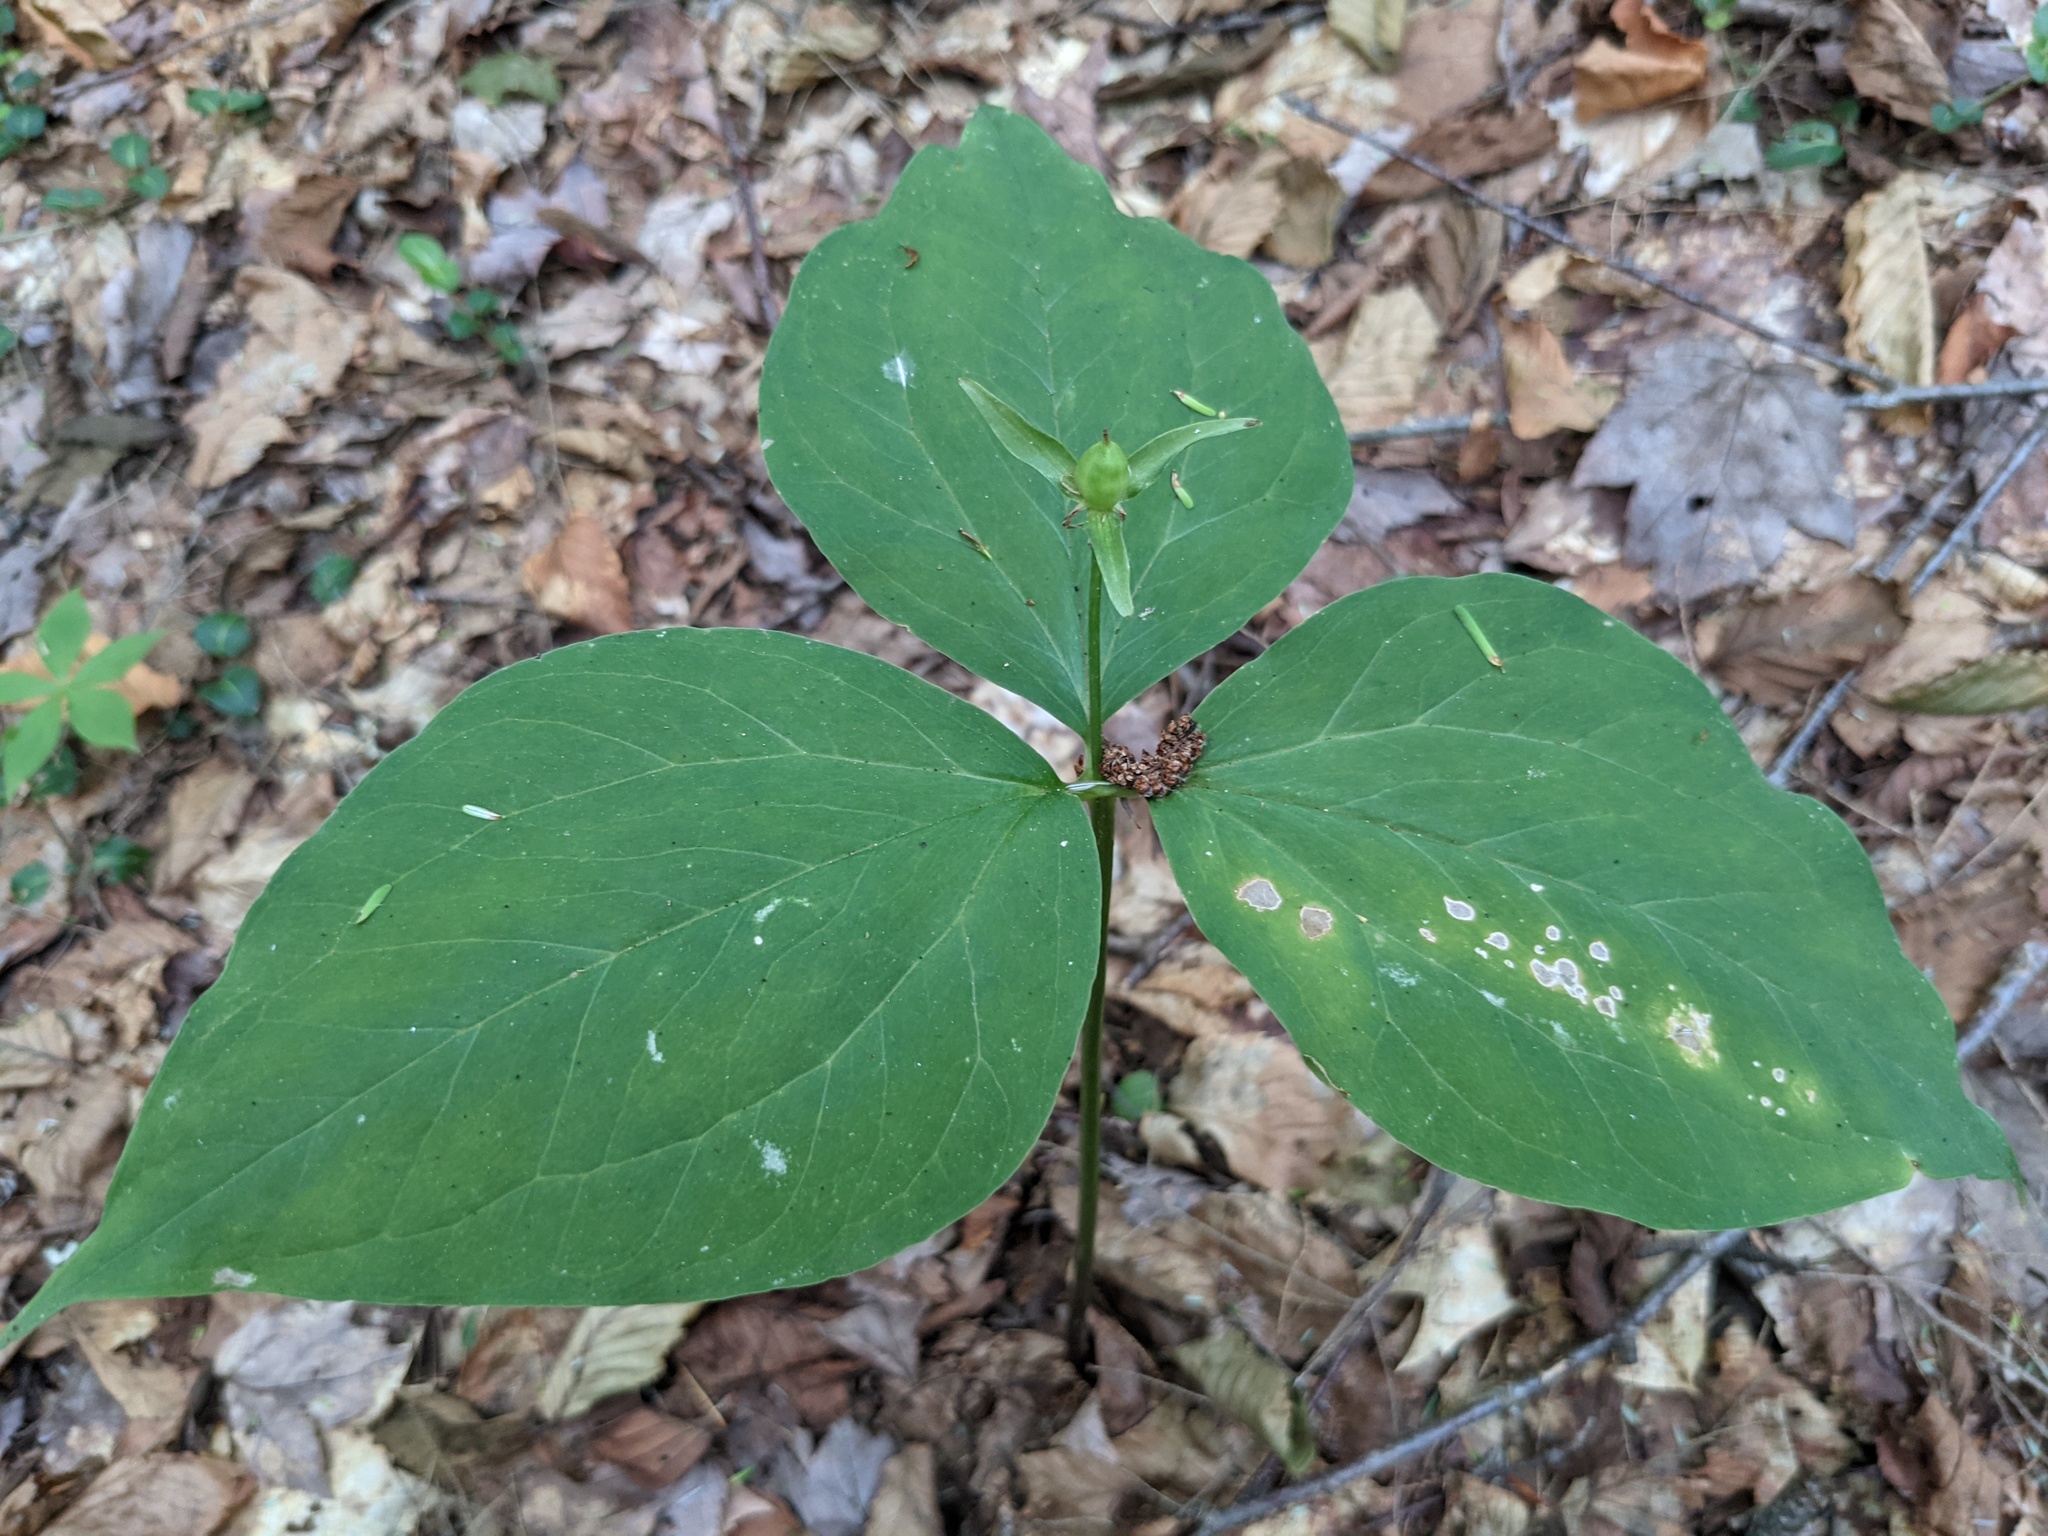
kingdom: Plantae
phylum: Tracheophyta
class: Liliopsida
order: Liliales
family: Melanthiaceae
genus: Trillium
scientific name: Trillium undulatum
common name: Paint trillium
